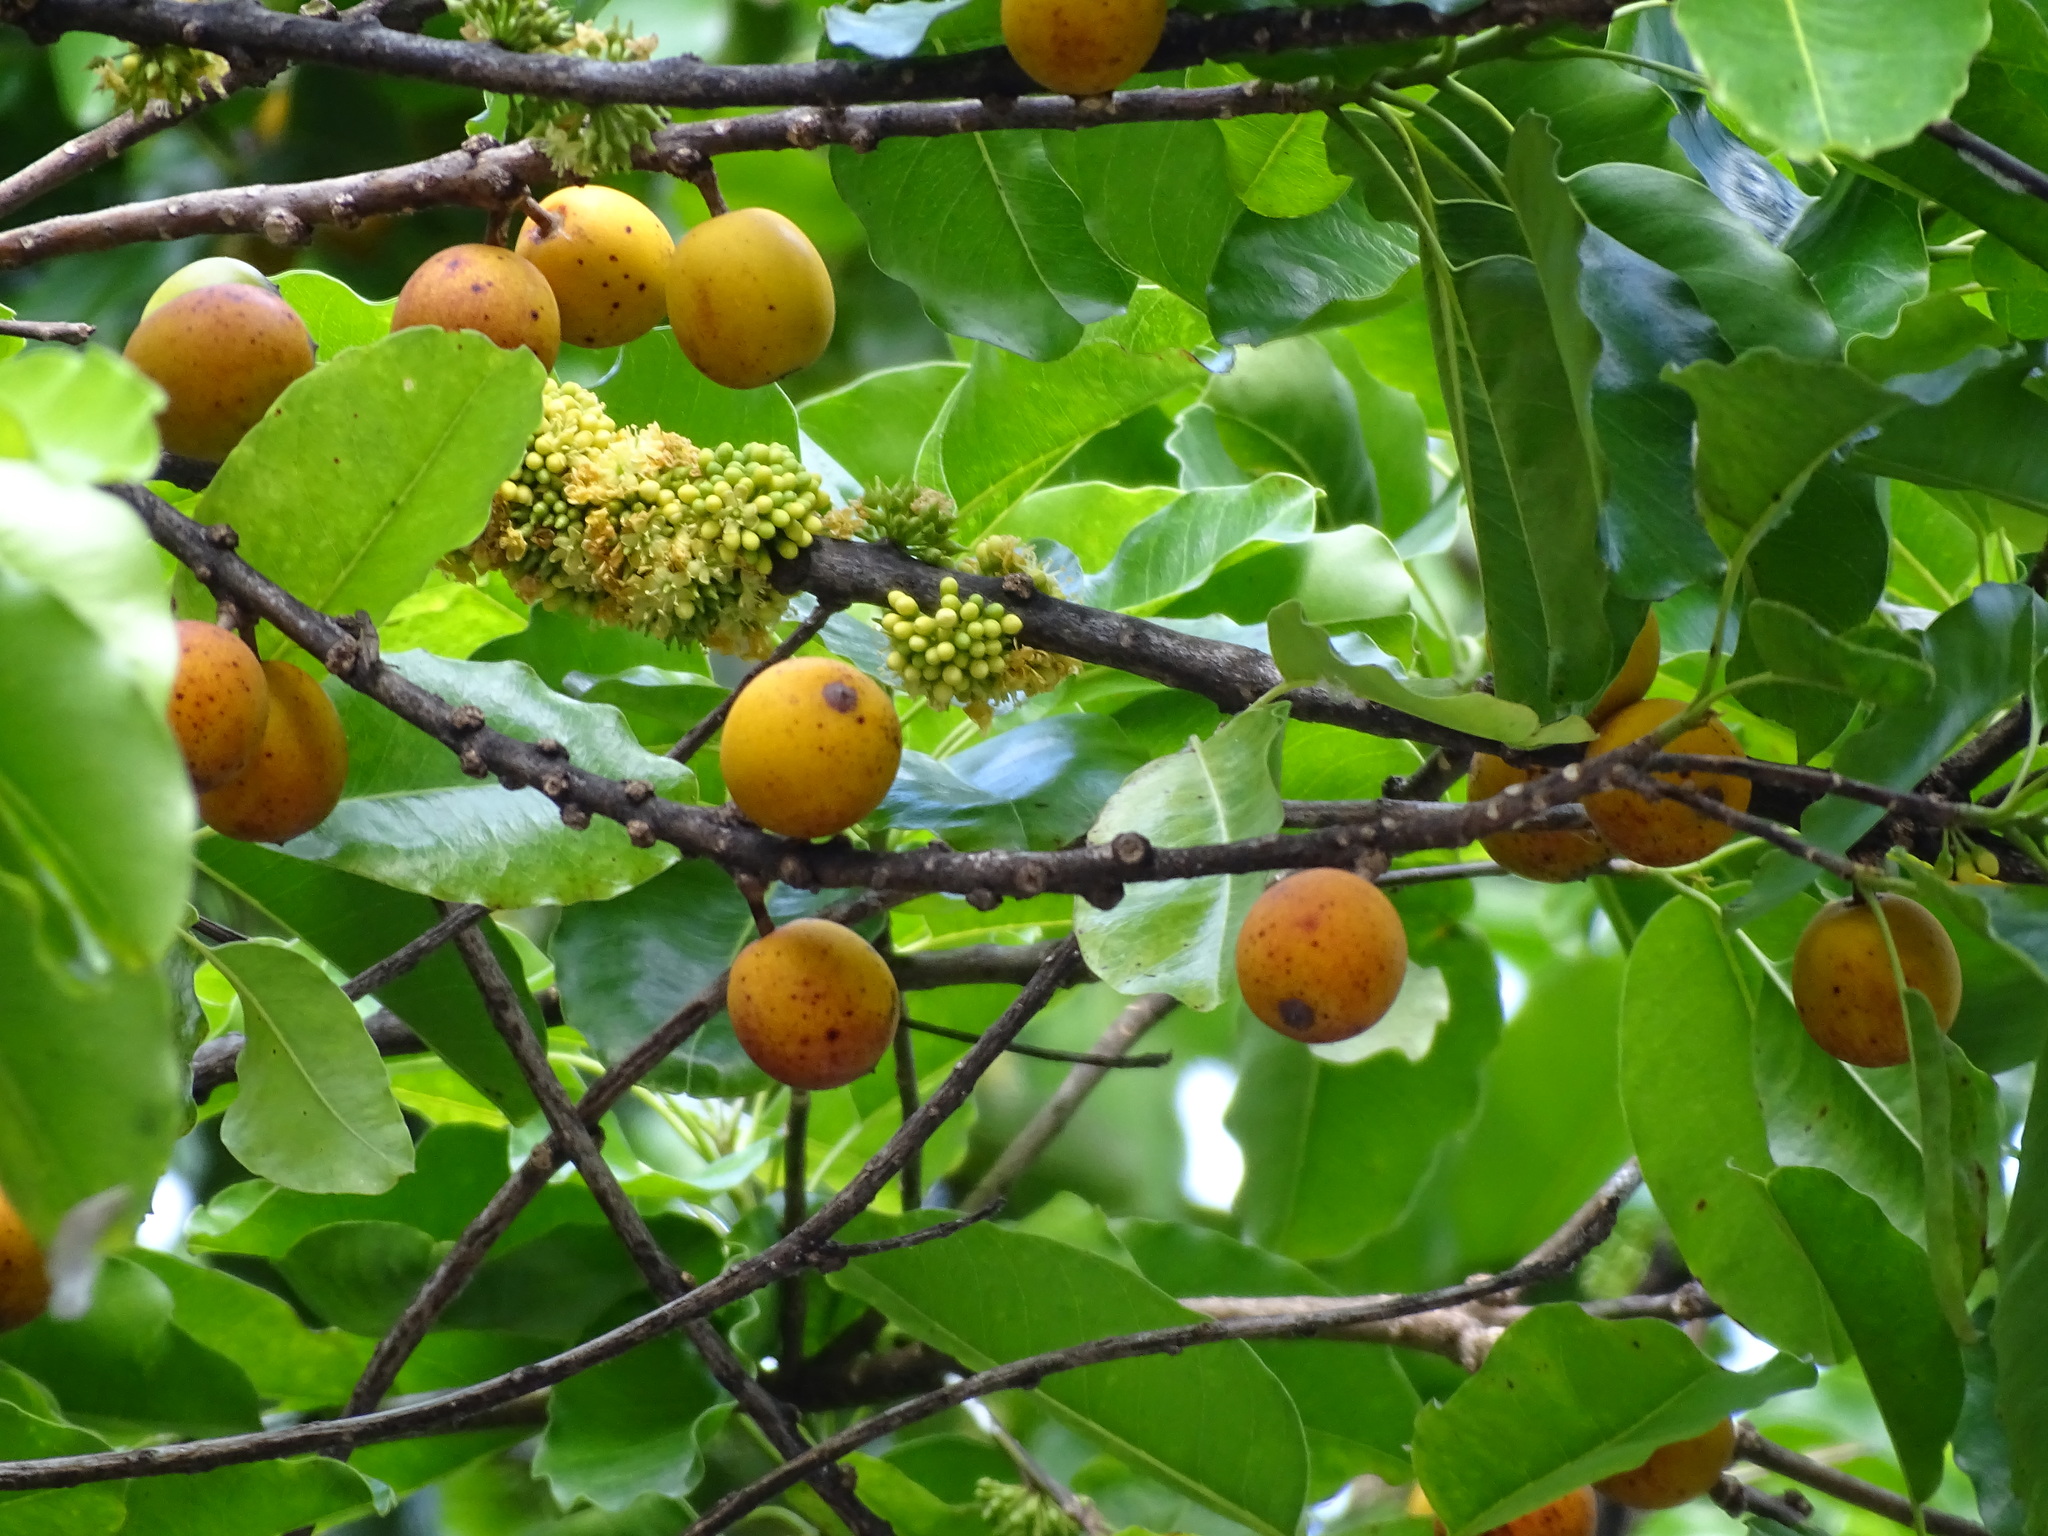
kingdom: Plantae
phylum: Tracheophyta
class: Magnoliopsida
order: Ericales
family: Sapotaceae
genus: Sideroxylon
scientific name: Sideroxylon foetidissimum
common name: Barbados-mastic
